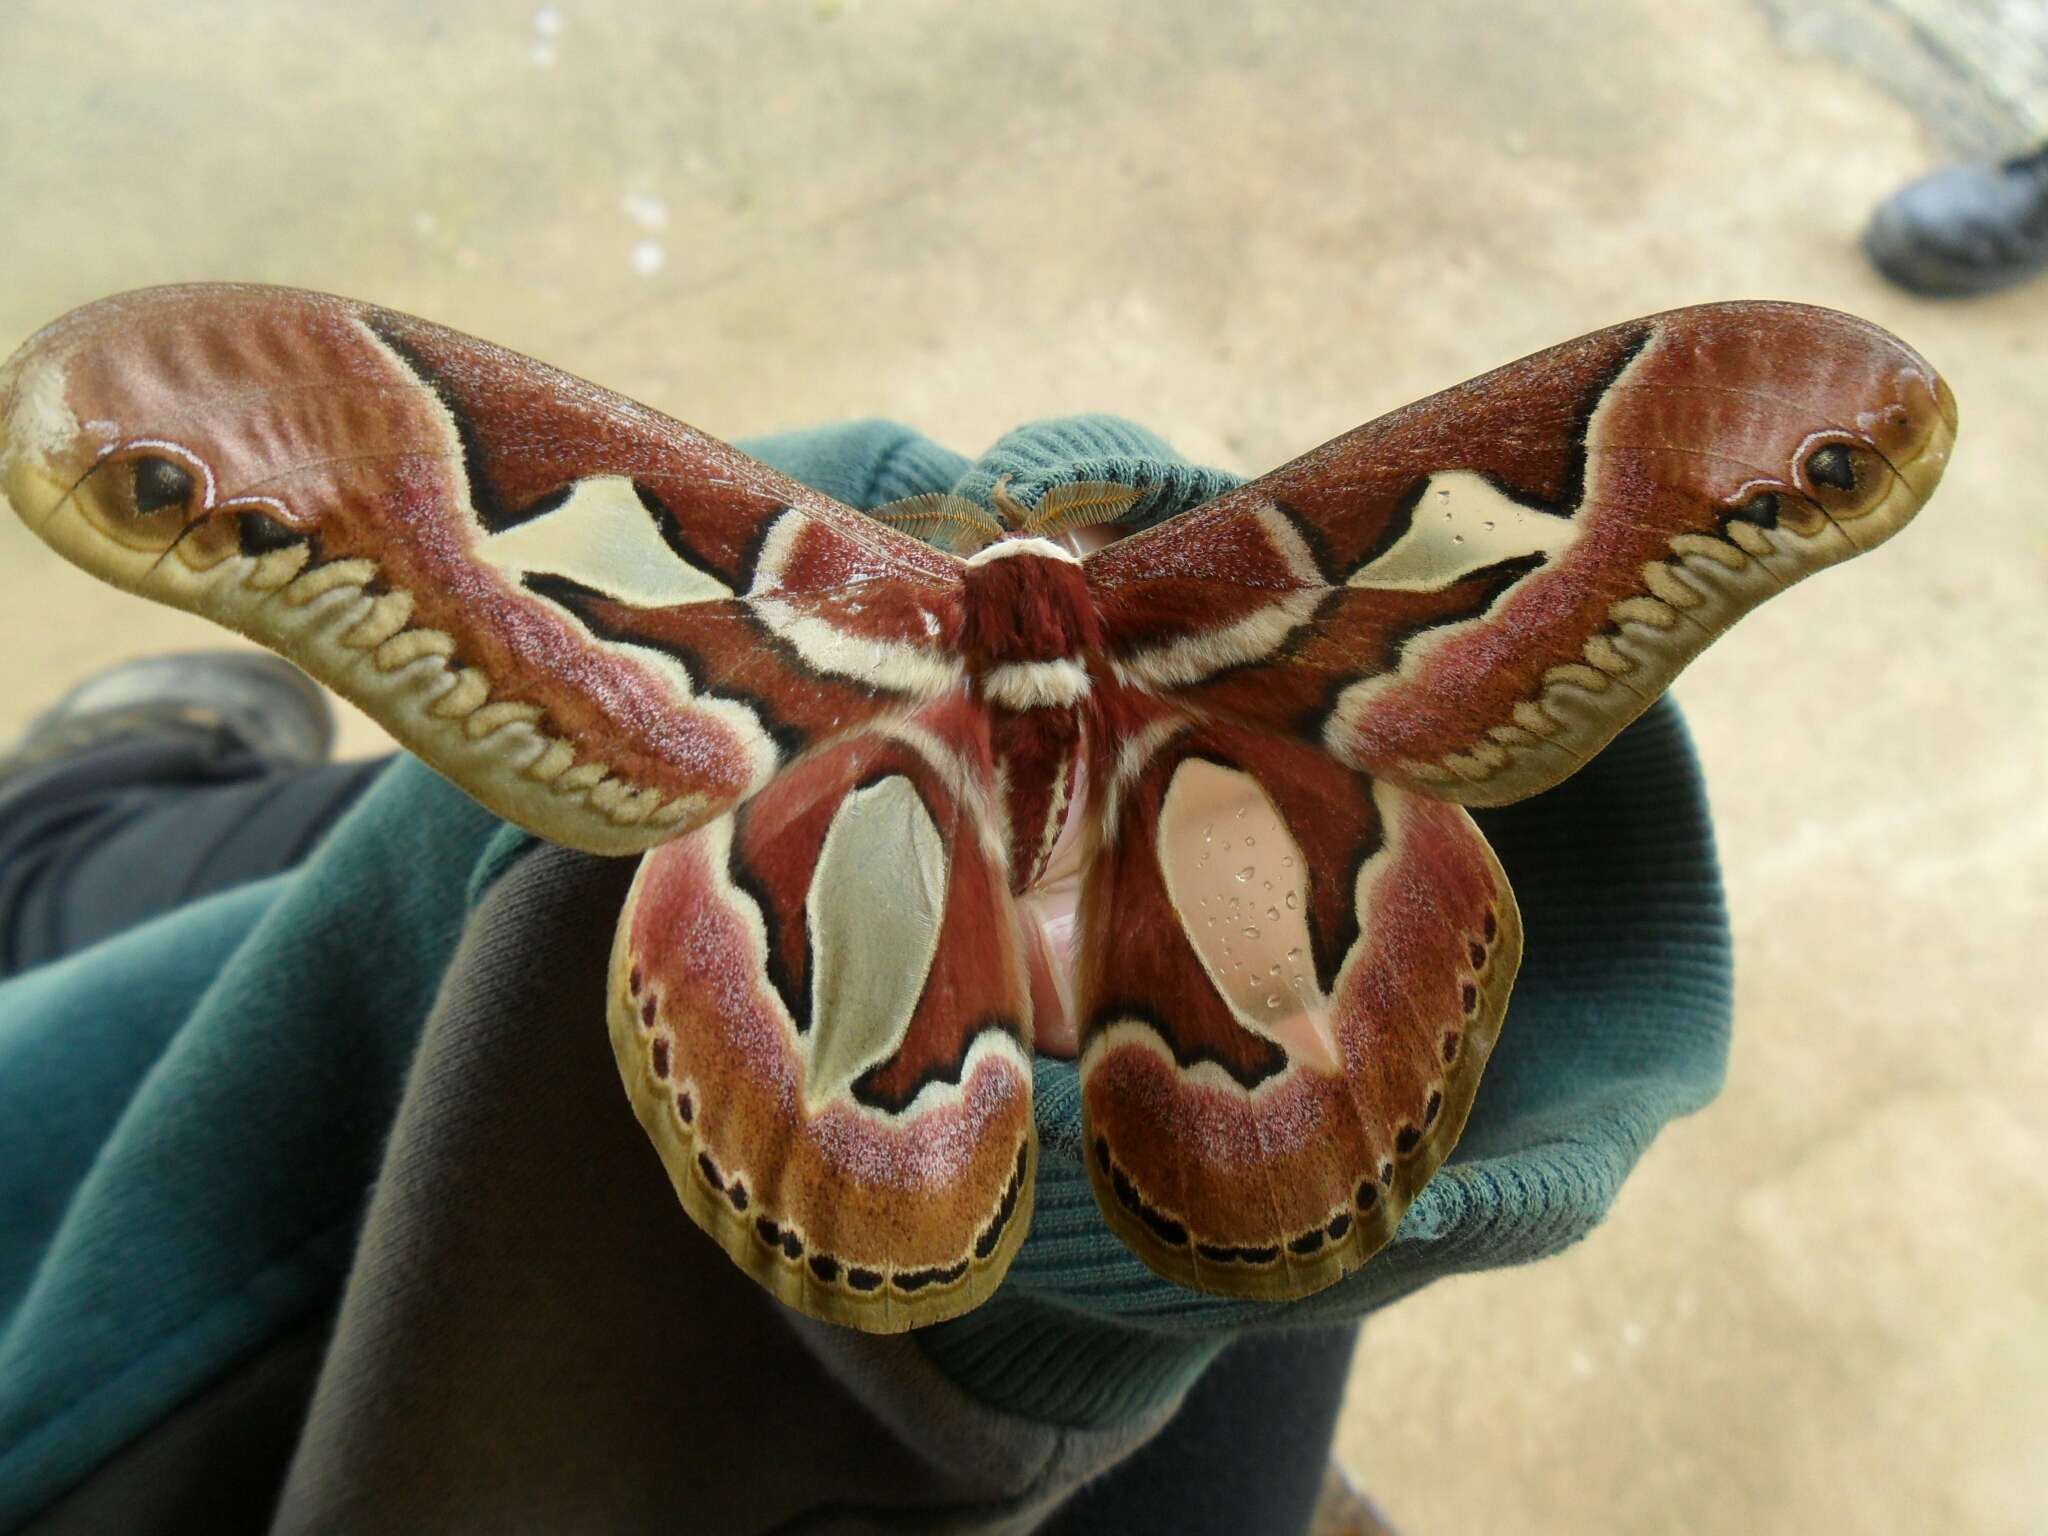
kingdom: Animalia
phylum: Arthropoda
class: Insecta
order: Lepidoptera
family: Saturniidae
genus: Rothschildia
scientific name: Rothschildia jacobaeae
